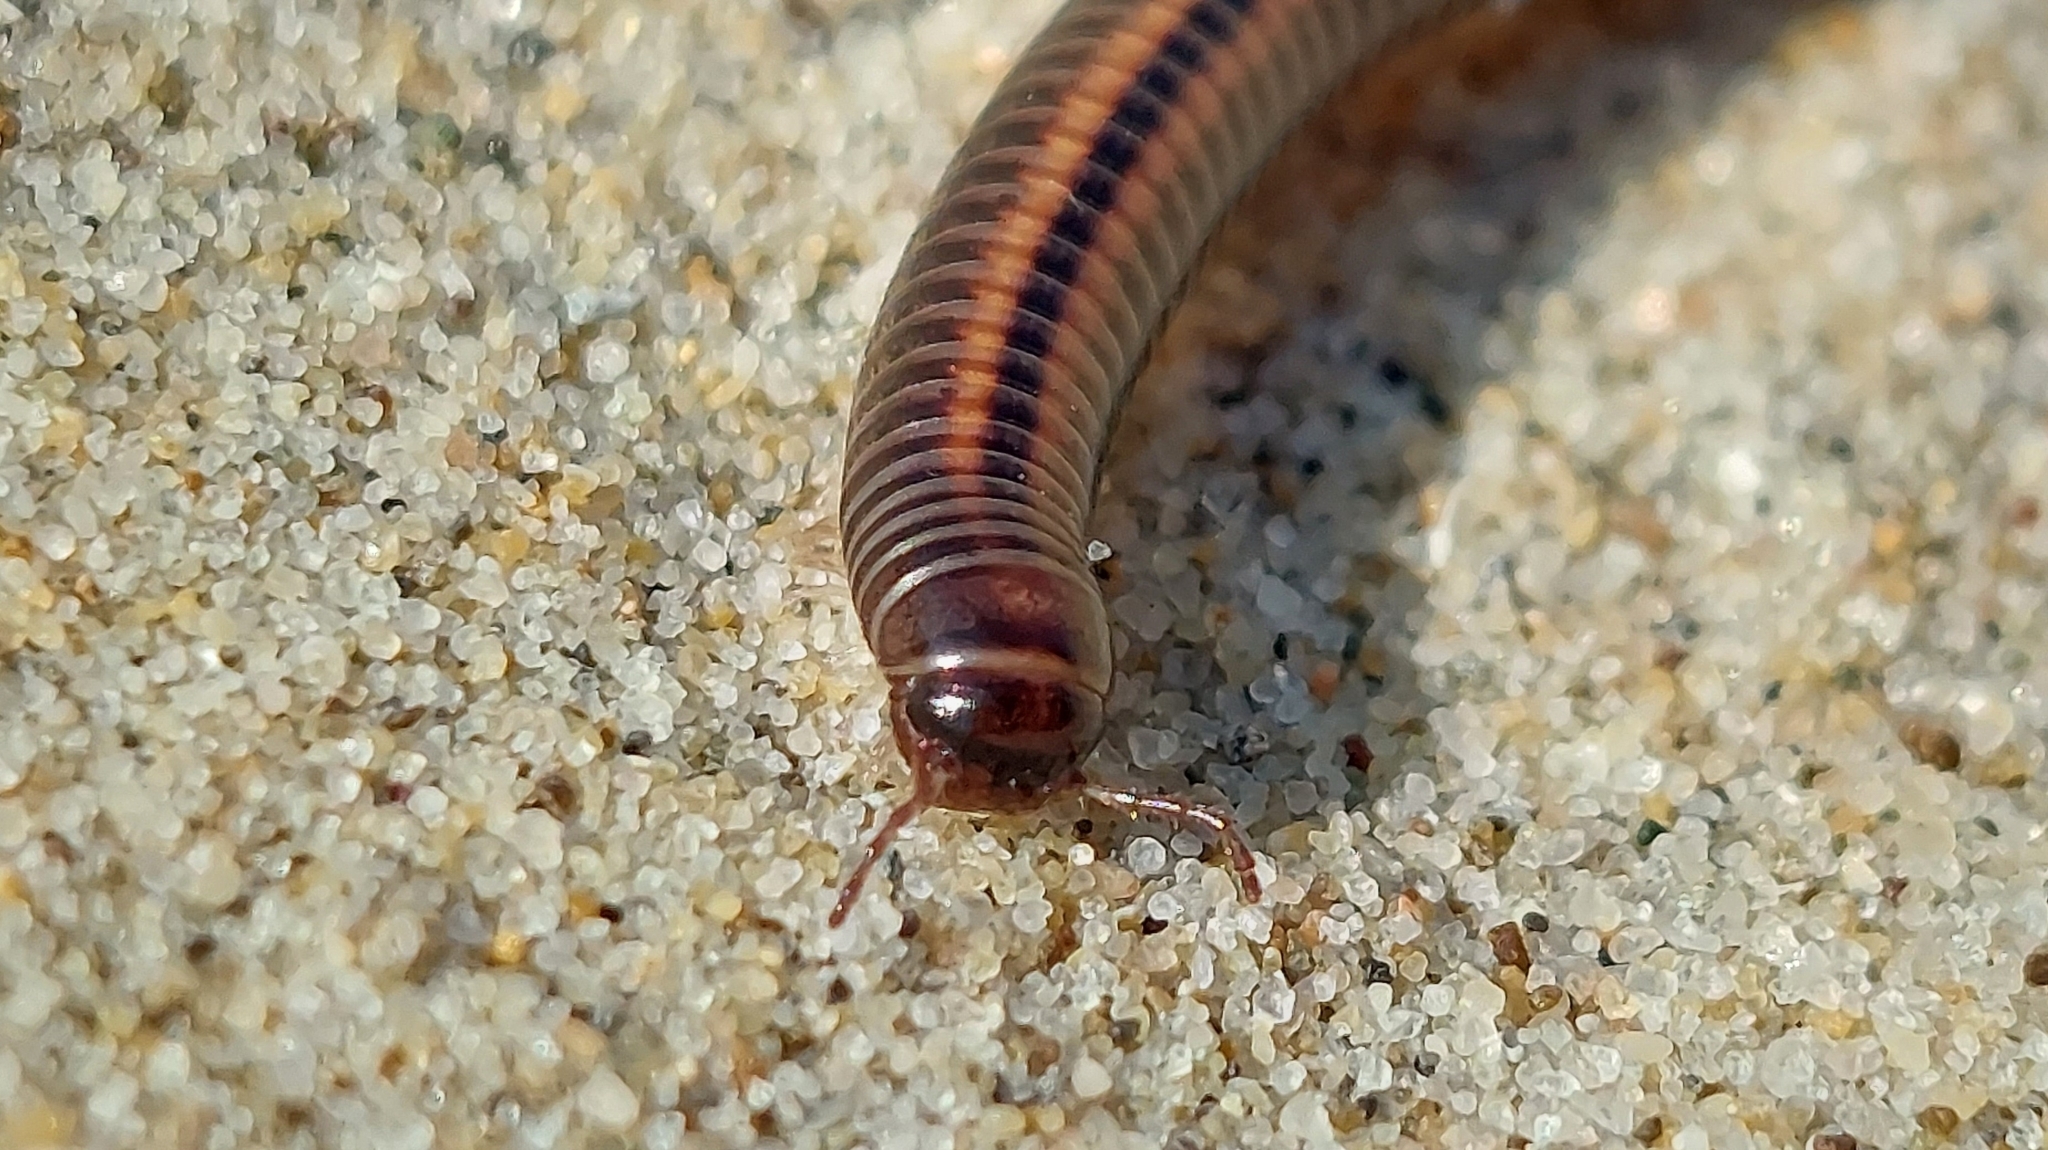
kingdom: Animalia
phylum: Arthropoda
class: Diplopoda
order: Julida
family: Julidae
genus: Ommatoiulus
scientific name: Ommatoiulus sabulosus
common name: Striped millipede
